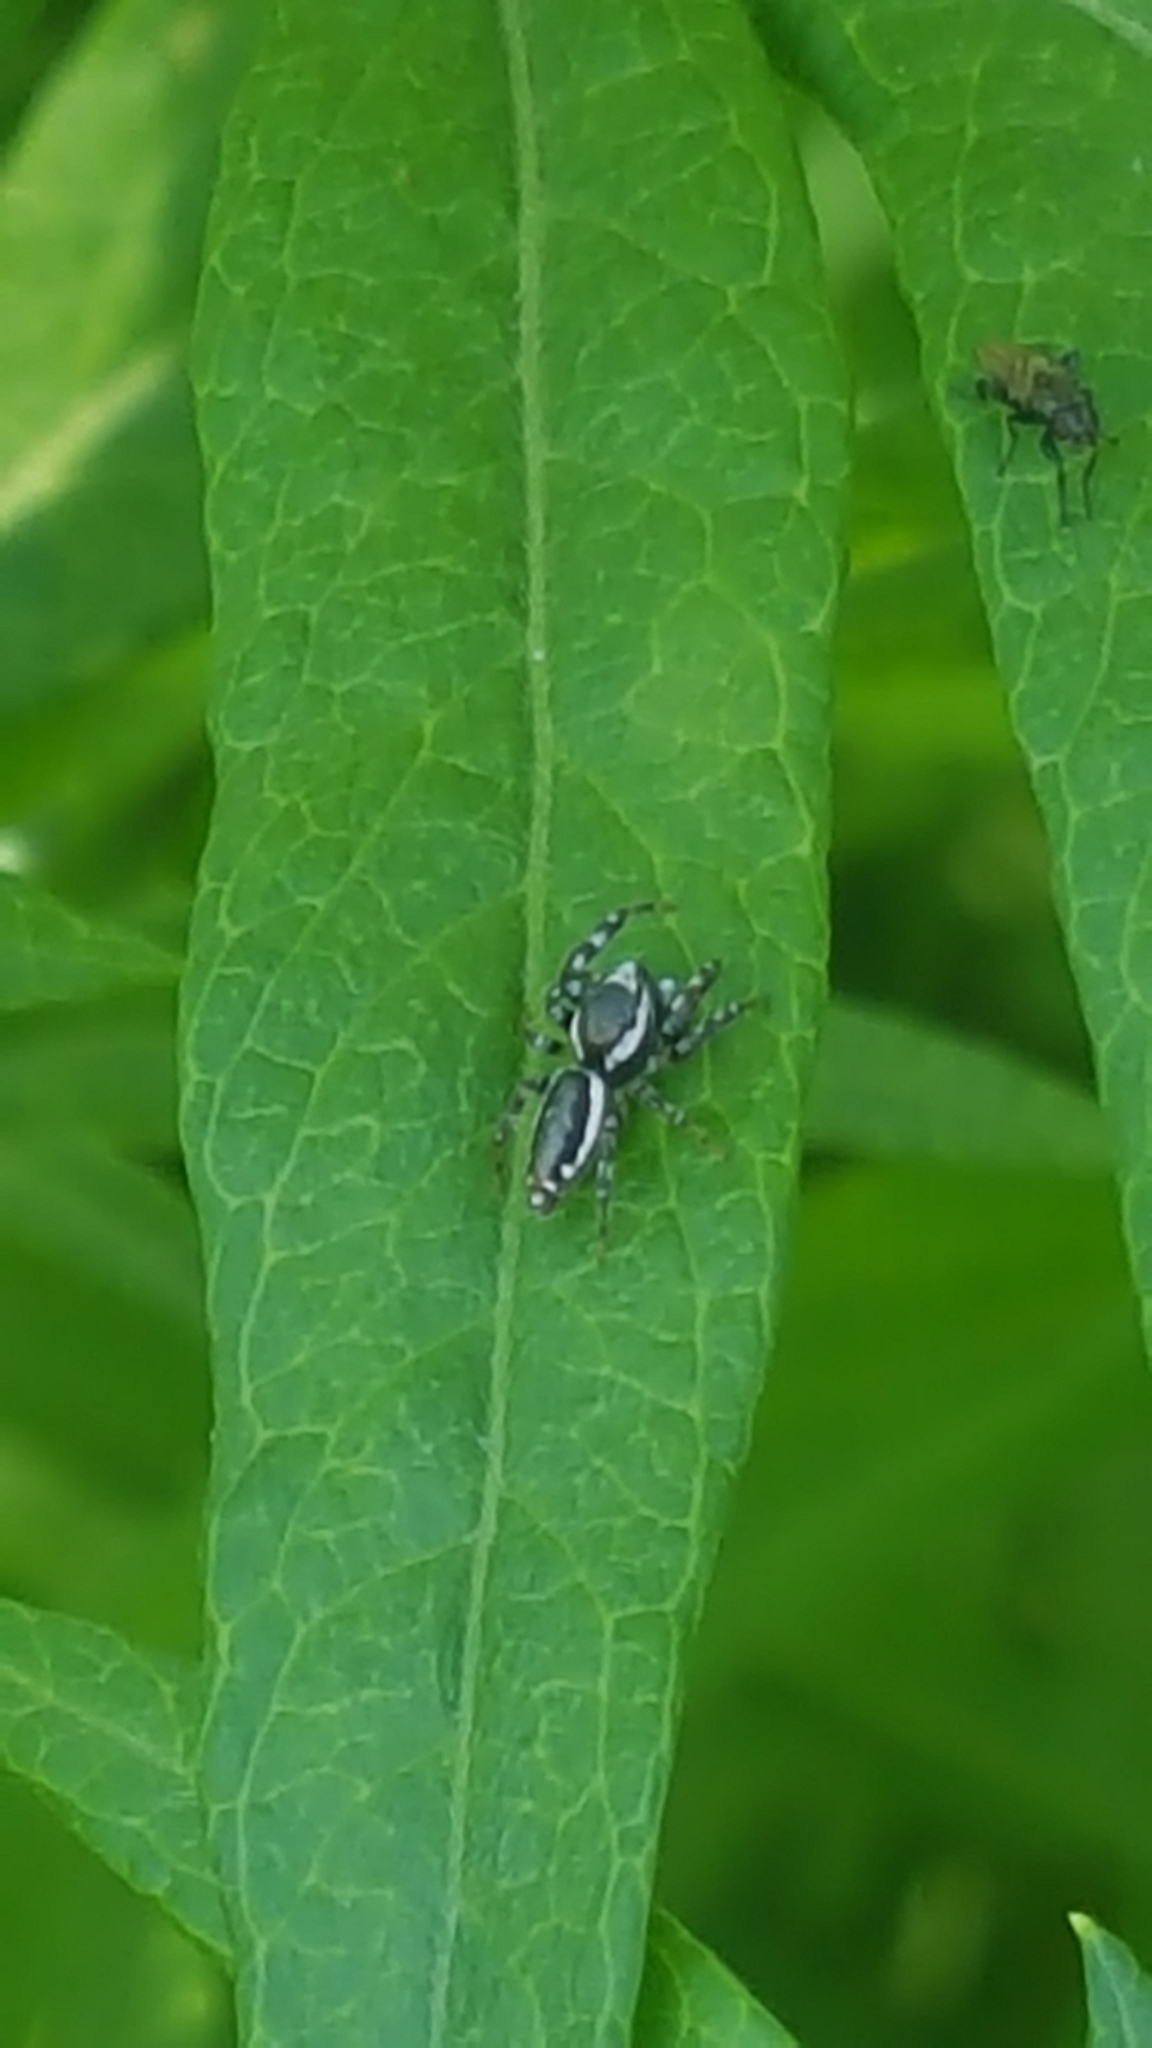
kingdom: Animalia
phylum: Arthropoda
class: Arachnida
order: Araneae
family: Salticidae
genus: Pelegrina
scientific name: Pelegrina proterva
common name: Common white-cheeked jumping spider
